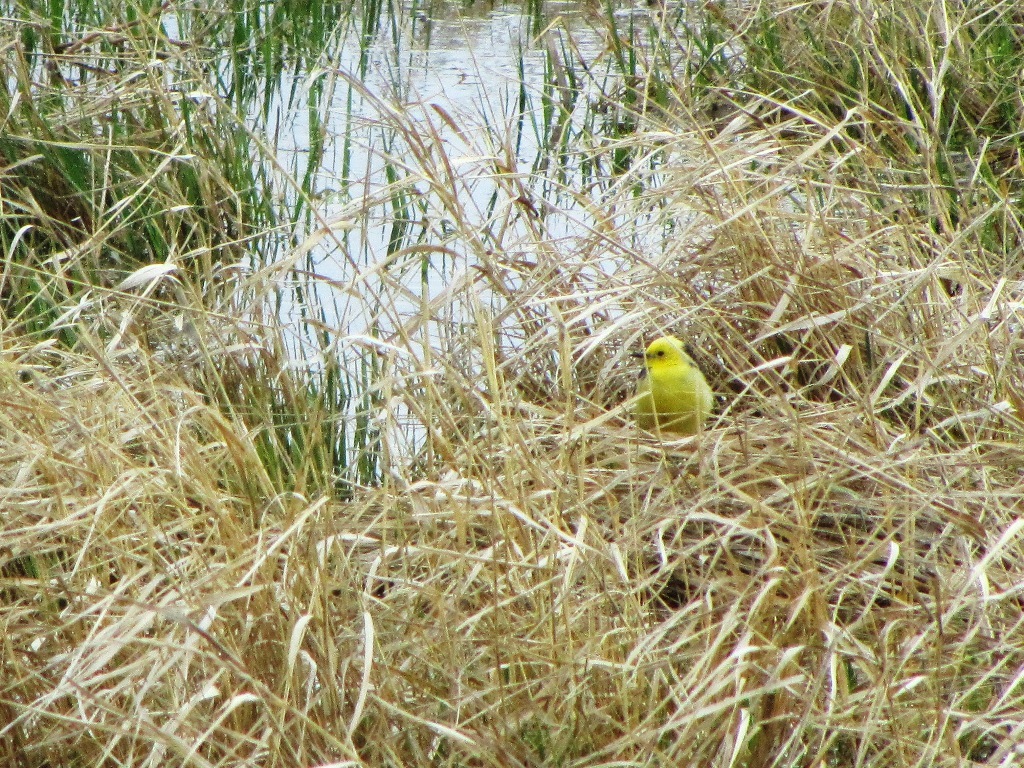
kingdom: Animalia
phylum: Chordata
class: Aves
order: Passeriformes
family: Motacillidae
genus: Motacilla
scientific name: Motacilla citreola
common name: Citrine wagtail
